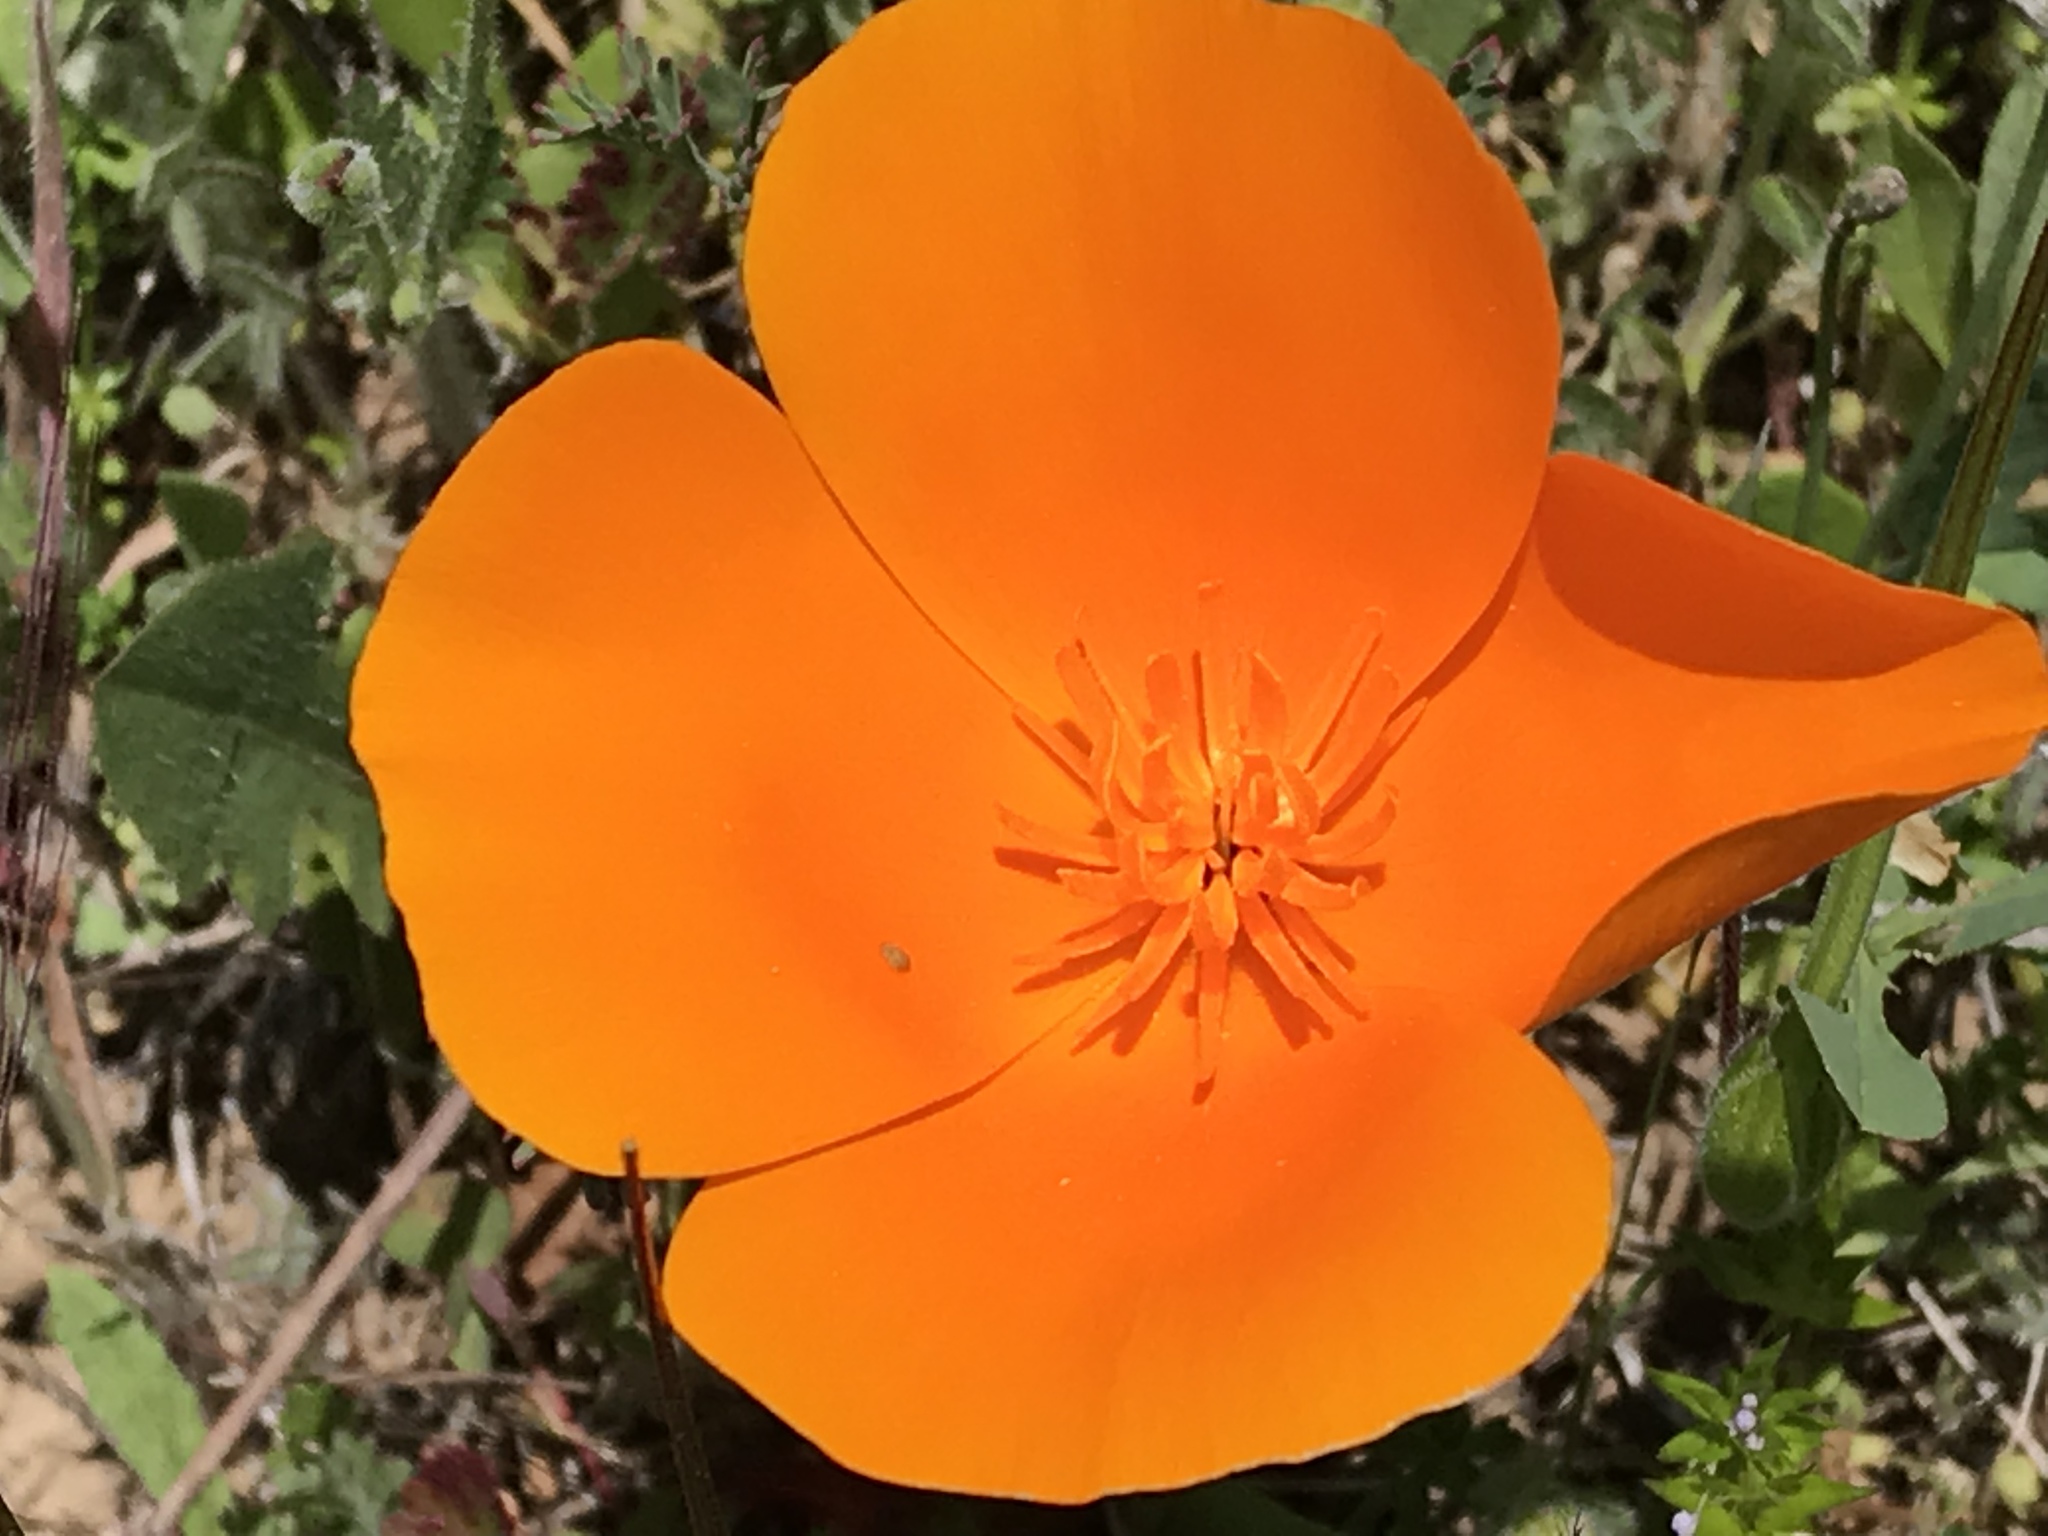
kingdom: Plantae
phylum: Tracheophyta
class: Magnoliopsida
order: Ranunculales
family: Papaveraceae
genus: Eschscholzia
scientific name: Eschscholzia californica
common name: California poppy
